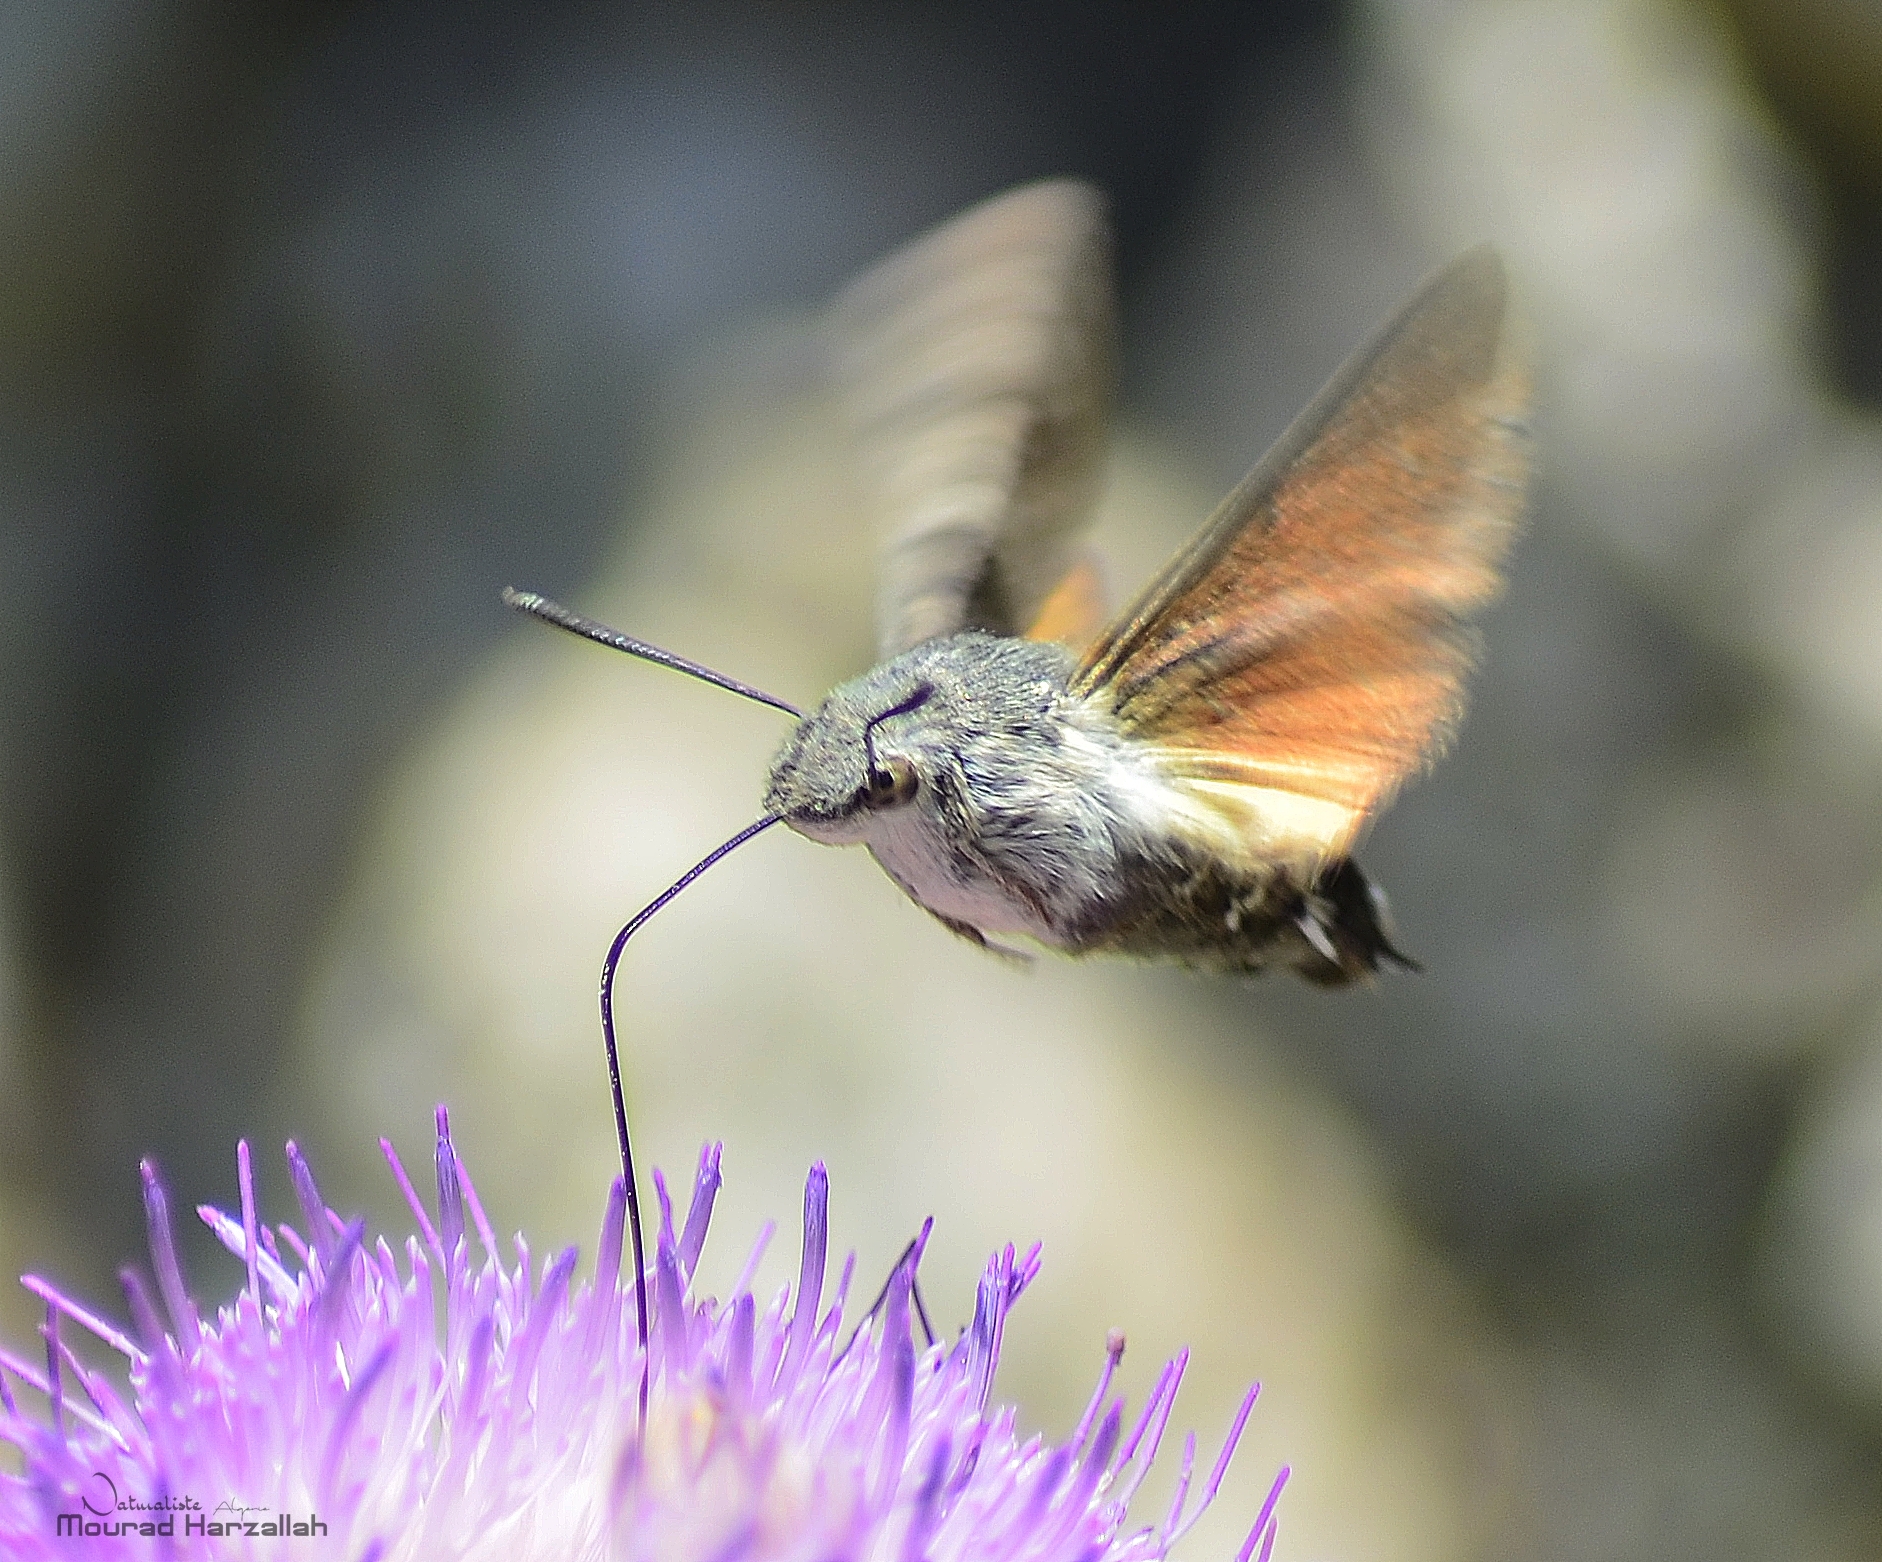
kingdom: Animalia
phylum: Arthropoda
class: Insecta
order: Lepidoptera
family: Sphingidae
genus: Macroglossum
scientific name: Macroglossum stellatarum
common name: Humming-bird hawk-moth
